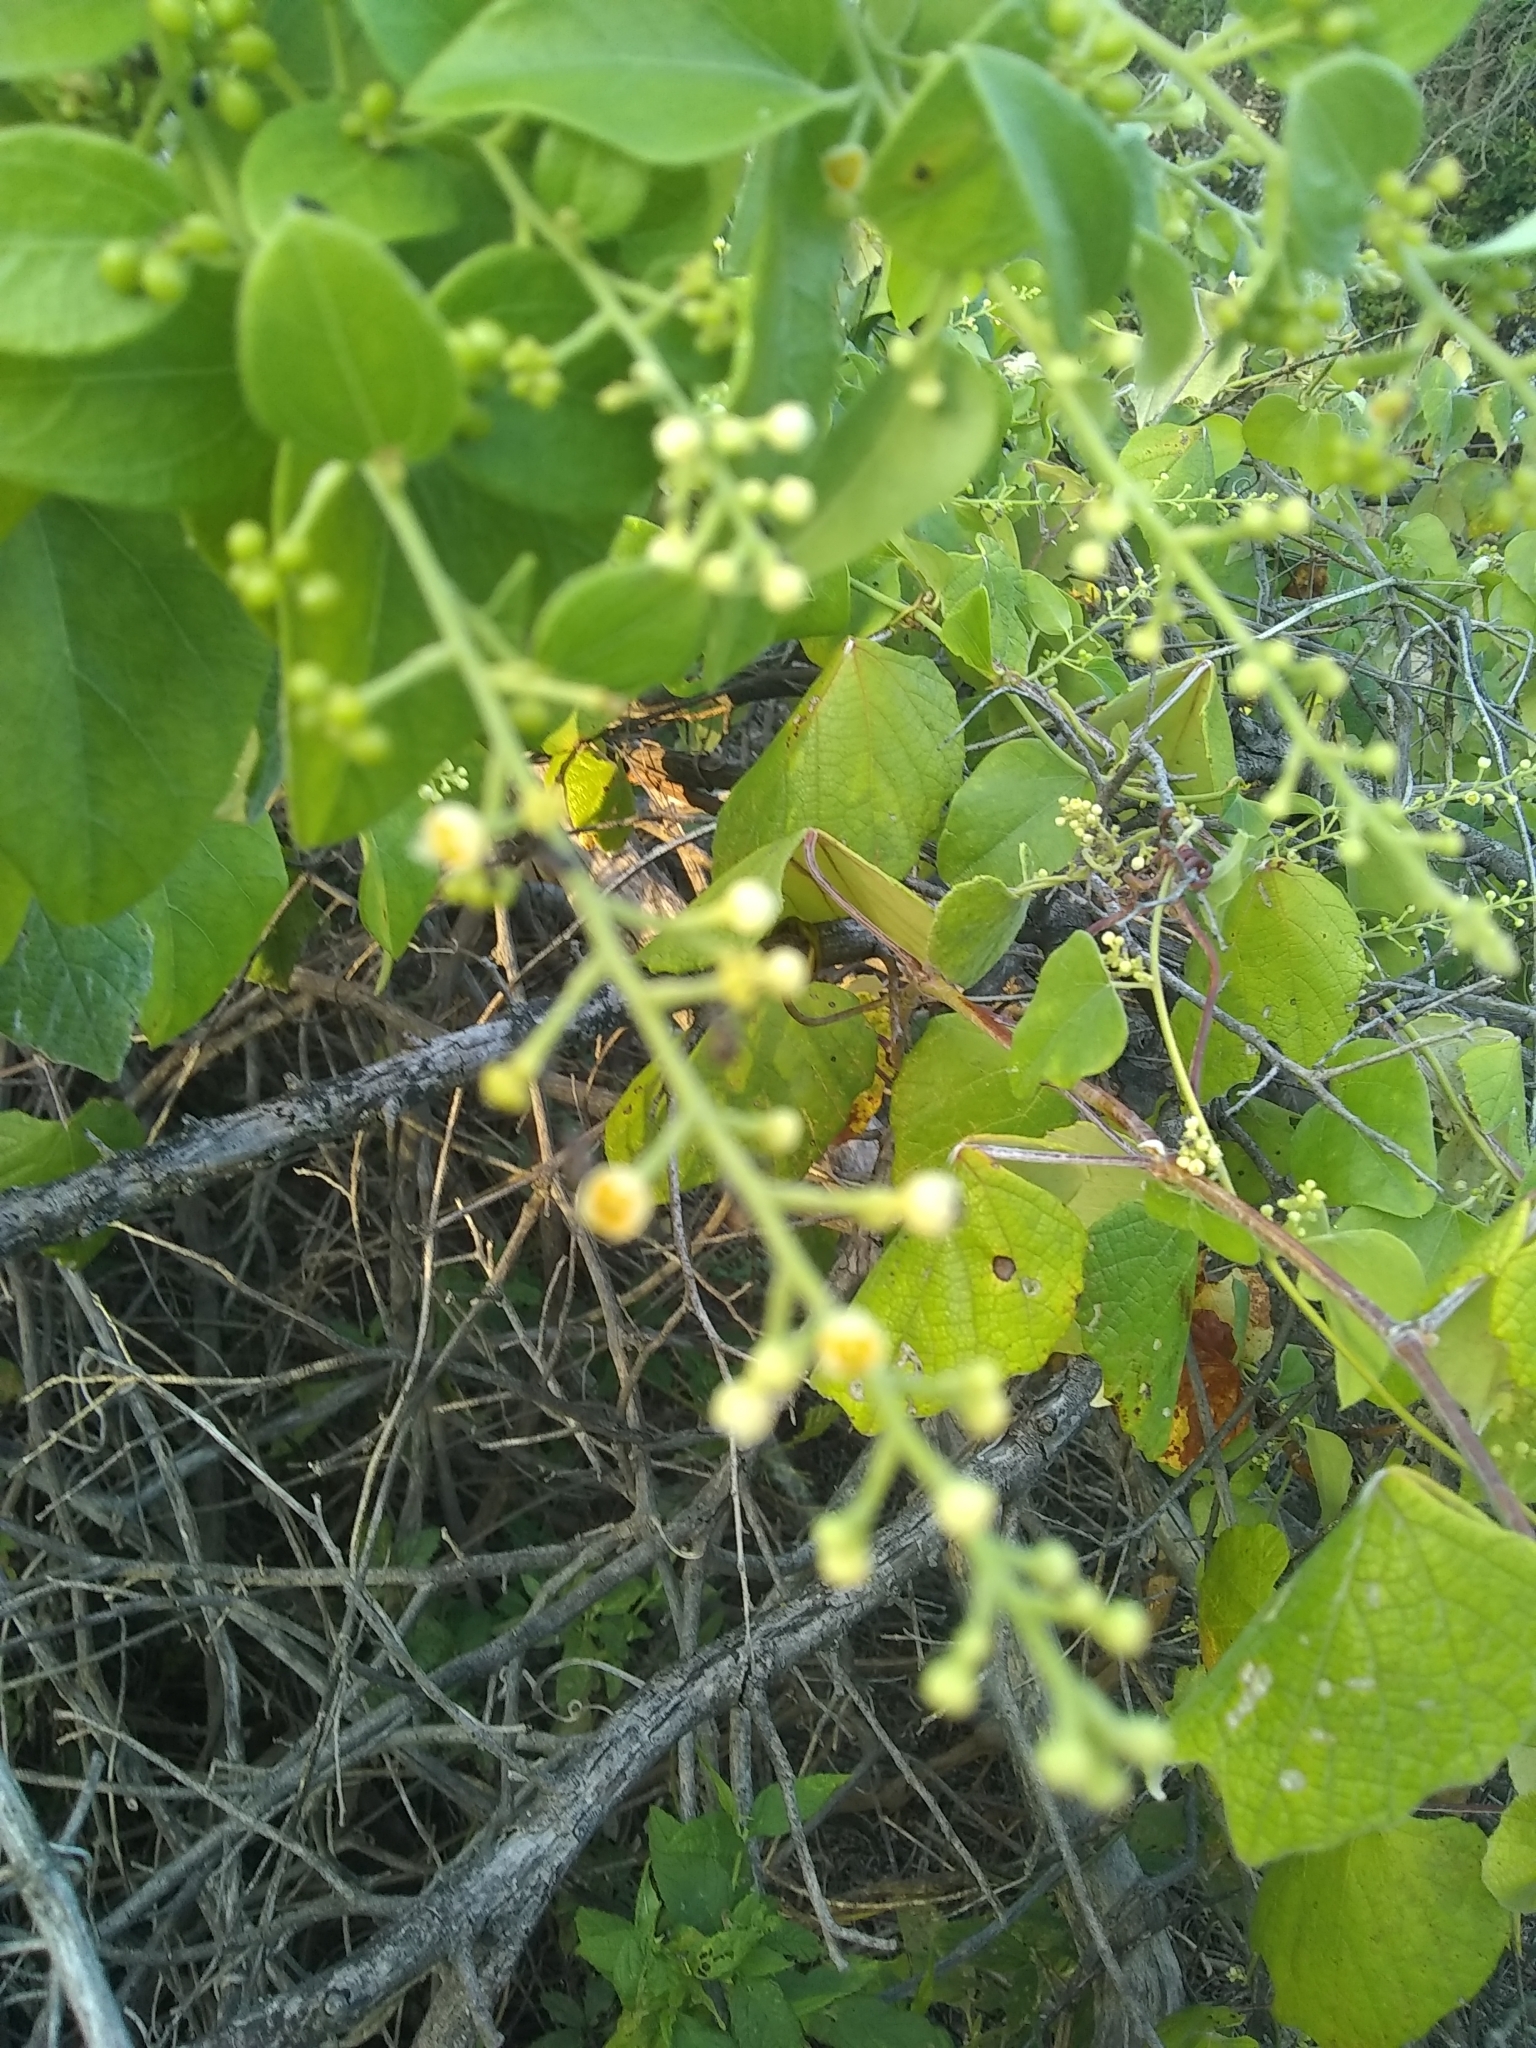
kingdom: Plantae
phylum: Tracheophyta
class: Magnoliopsida
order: Ranunculales
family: Menispermaceae
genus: Cocculus
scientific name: Cocculus carolinus
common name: Carolina moonseed
